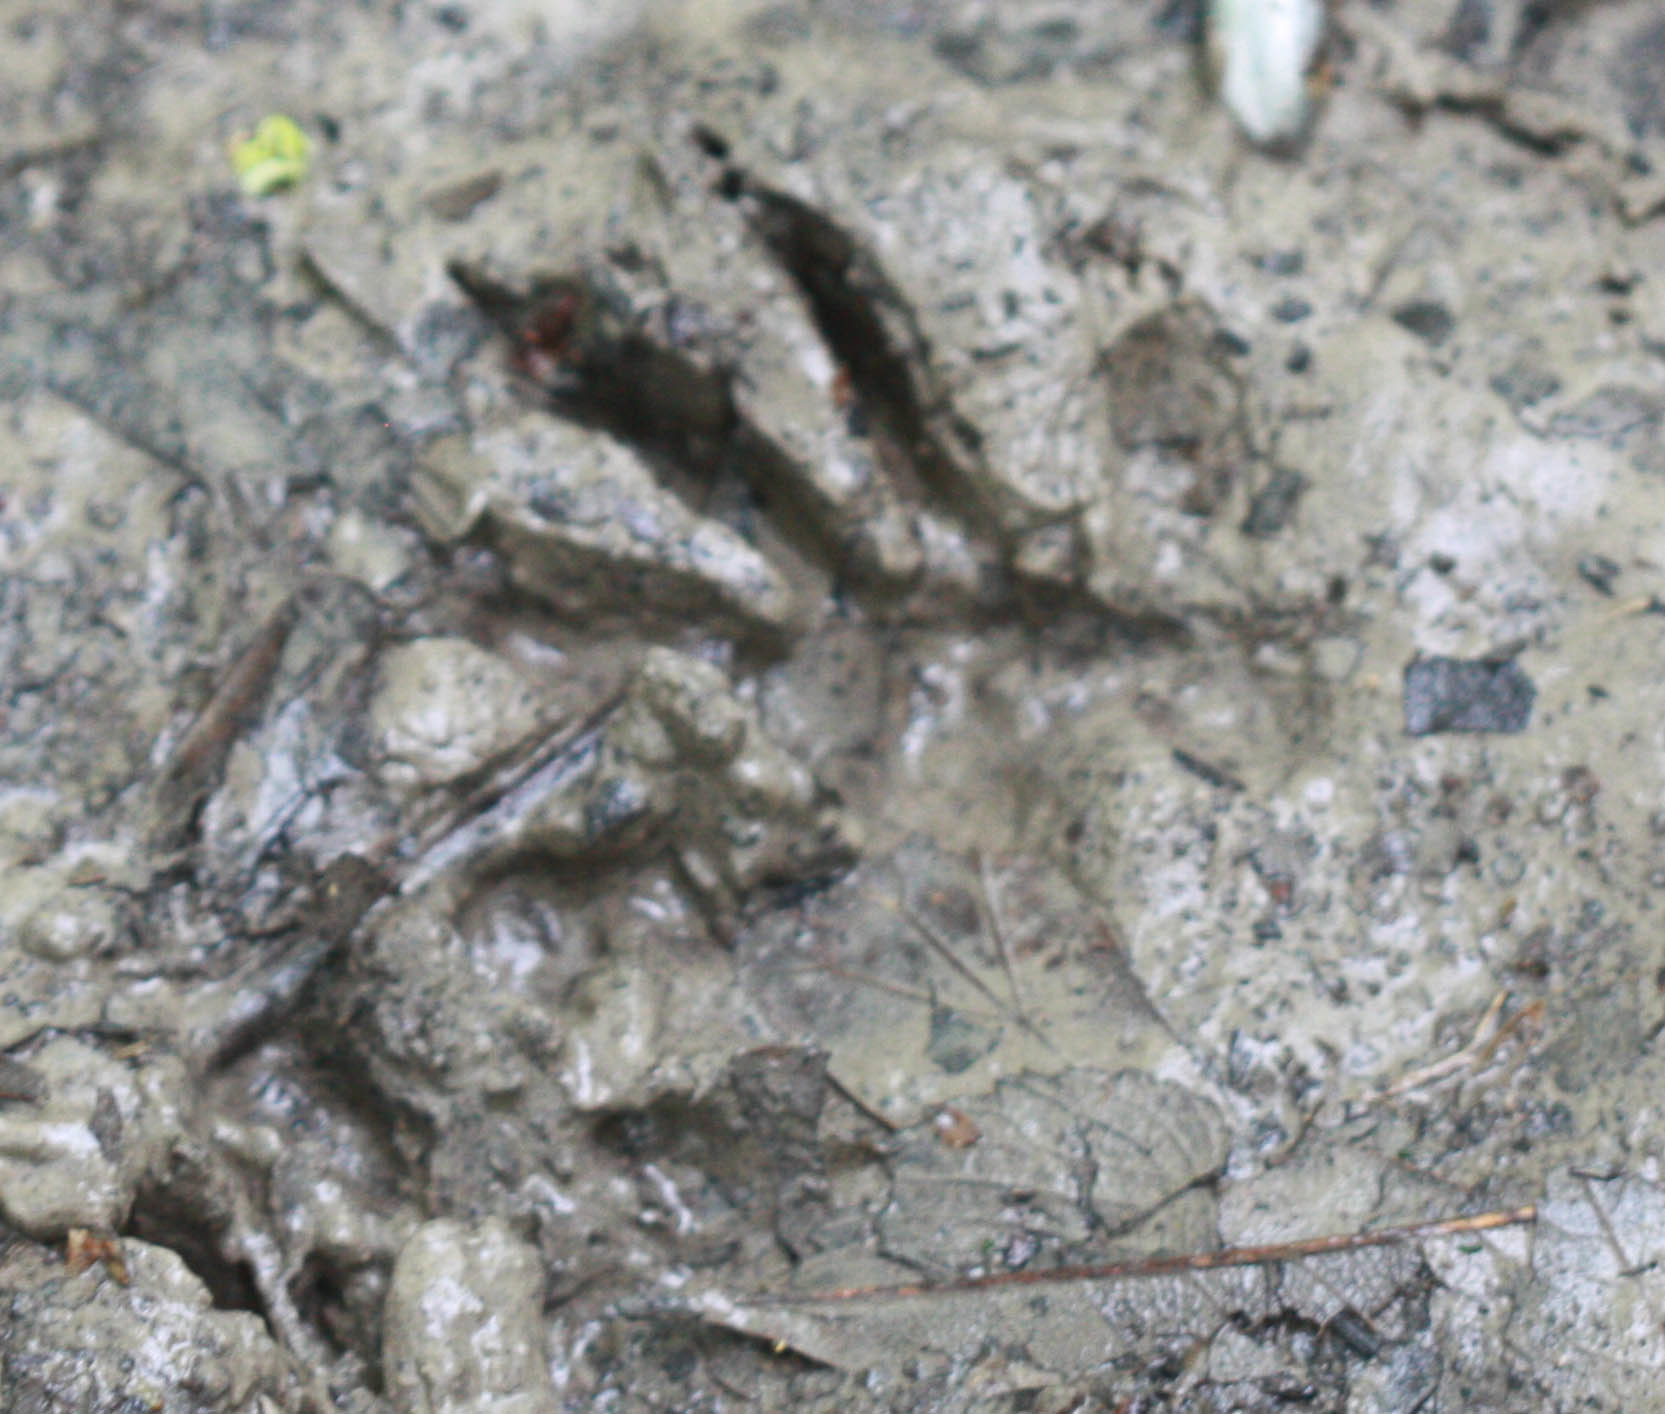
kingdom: Animalia
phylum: Chordata
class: Mammalia
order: Carnivora
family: Procyonidae
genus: Procyon
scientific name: Procyon lotor
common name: Raccoon
